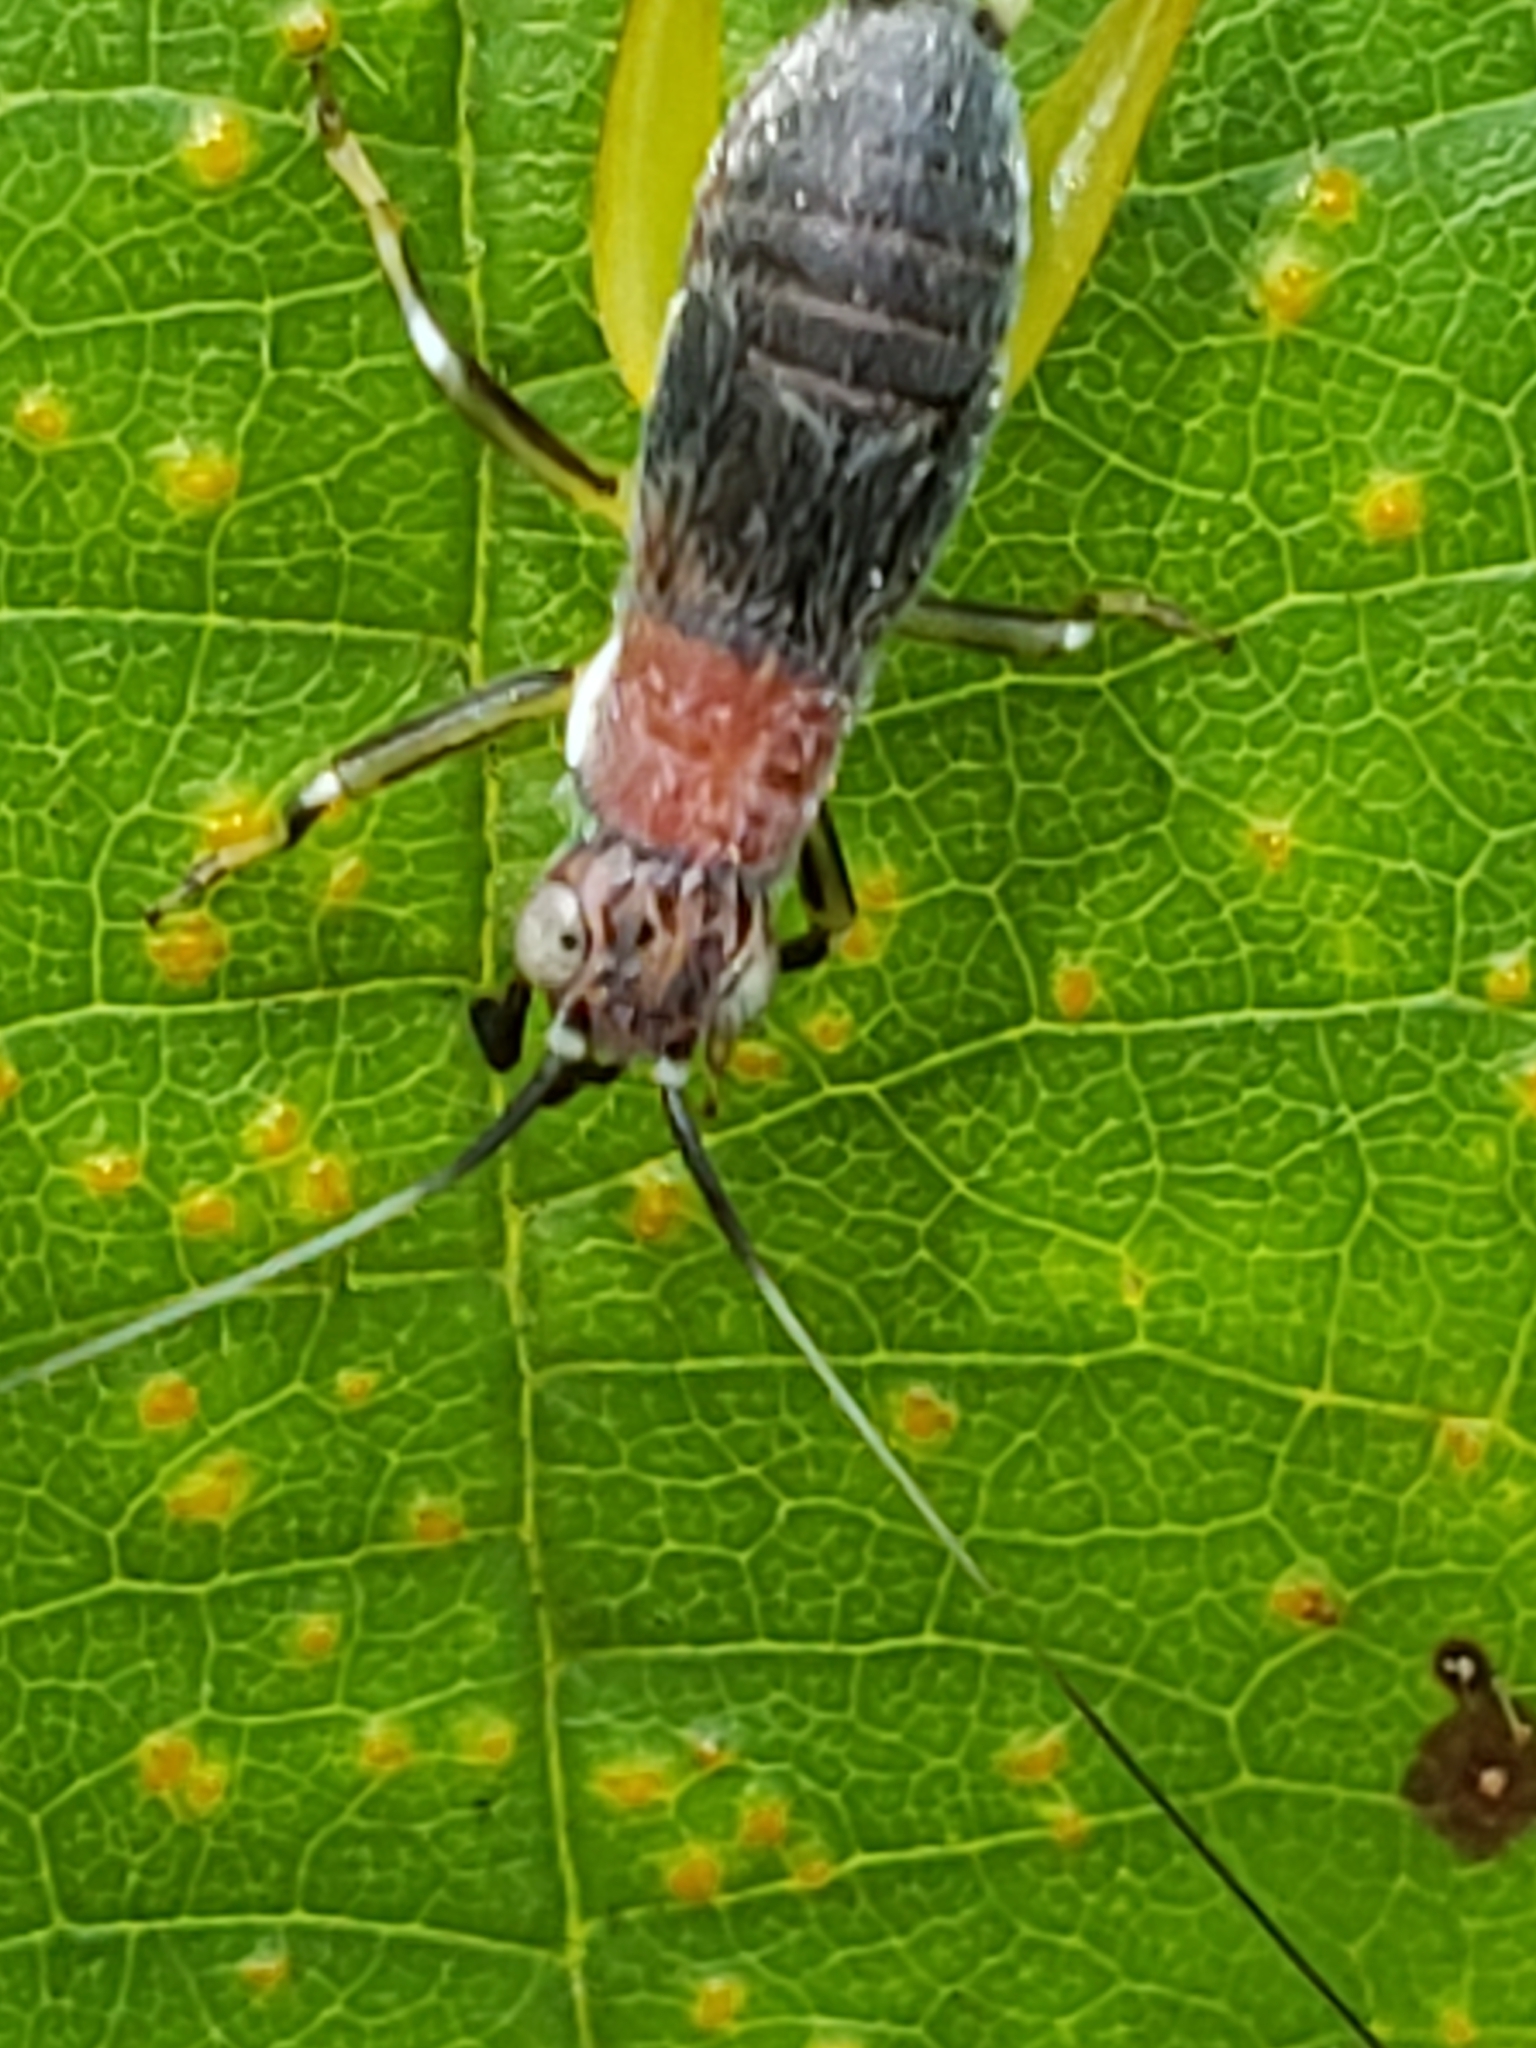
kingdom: Animalia
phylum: Arthropoda
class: Insecta
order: Orthoptera
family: Trigonidiidae
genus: Phyllopalpus
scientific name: Phyllopalpus pulchellus
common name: Handsome trig
